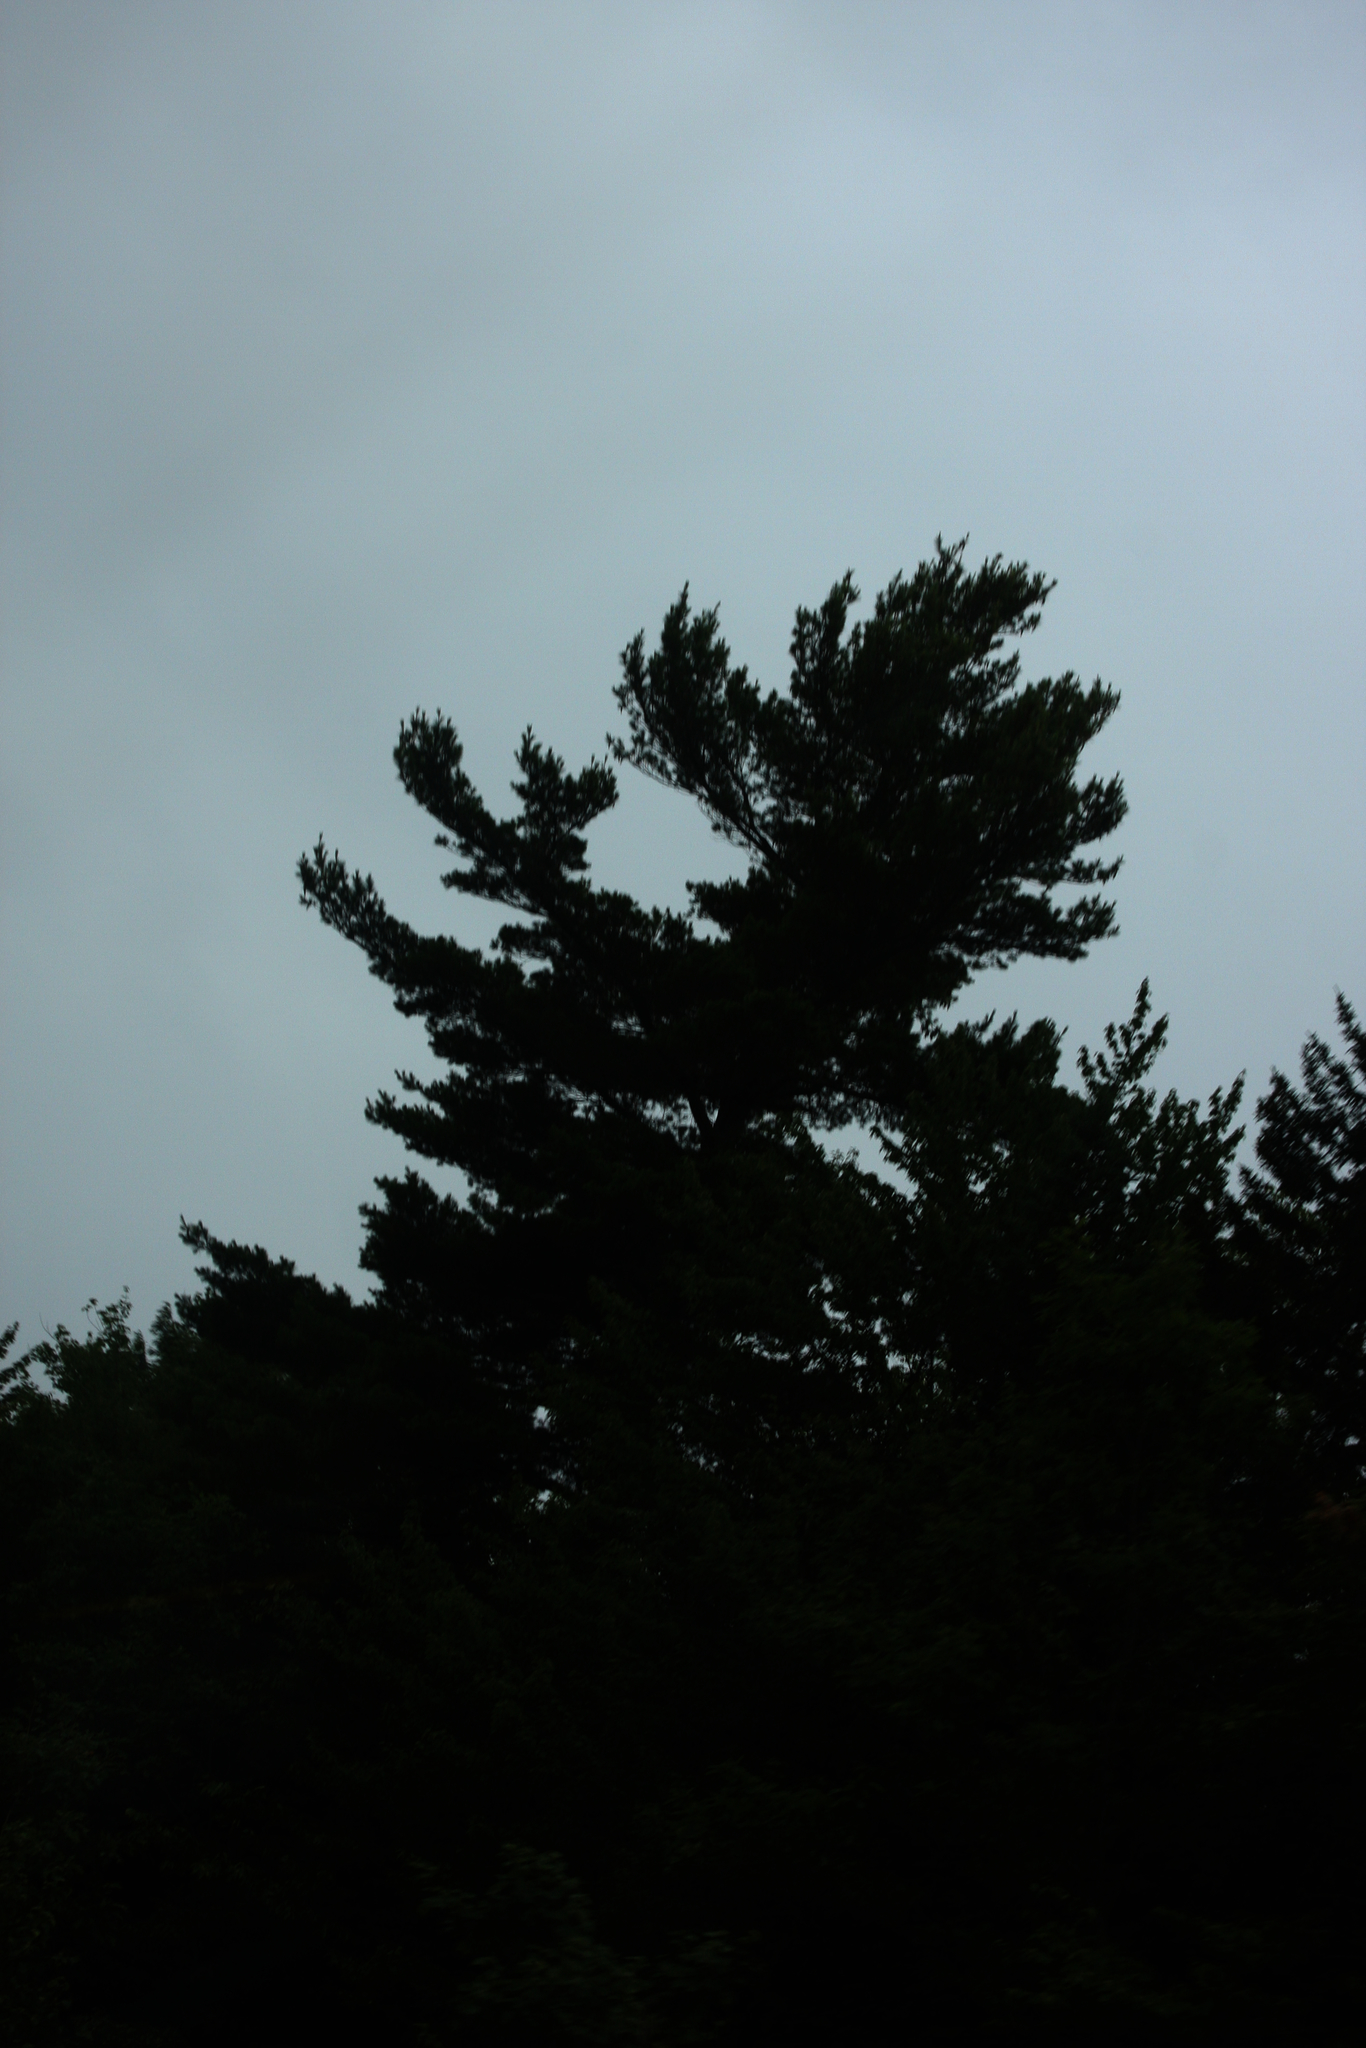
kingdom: Plantae
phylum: Tracheophyta
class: Pinopsida
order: Pinales
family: Pinaceae
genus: Pinus
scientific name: Pinus strobus
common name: Weymouth pine
